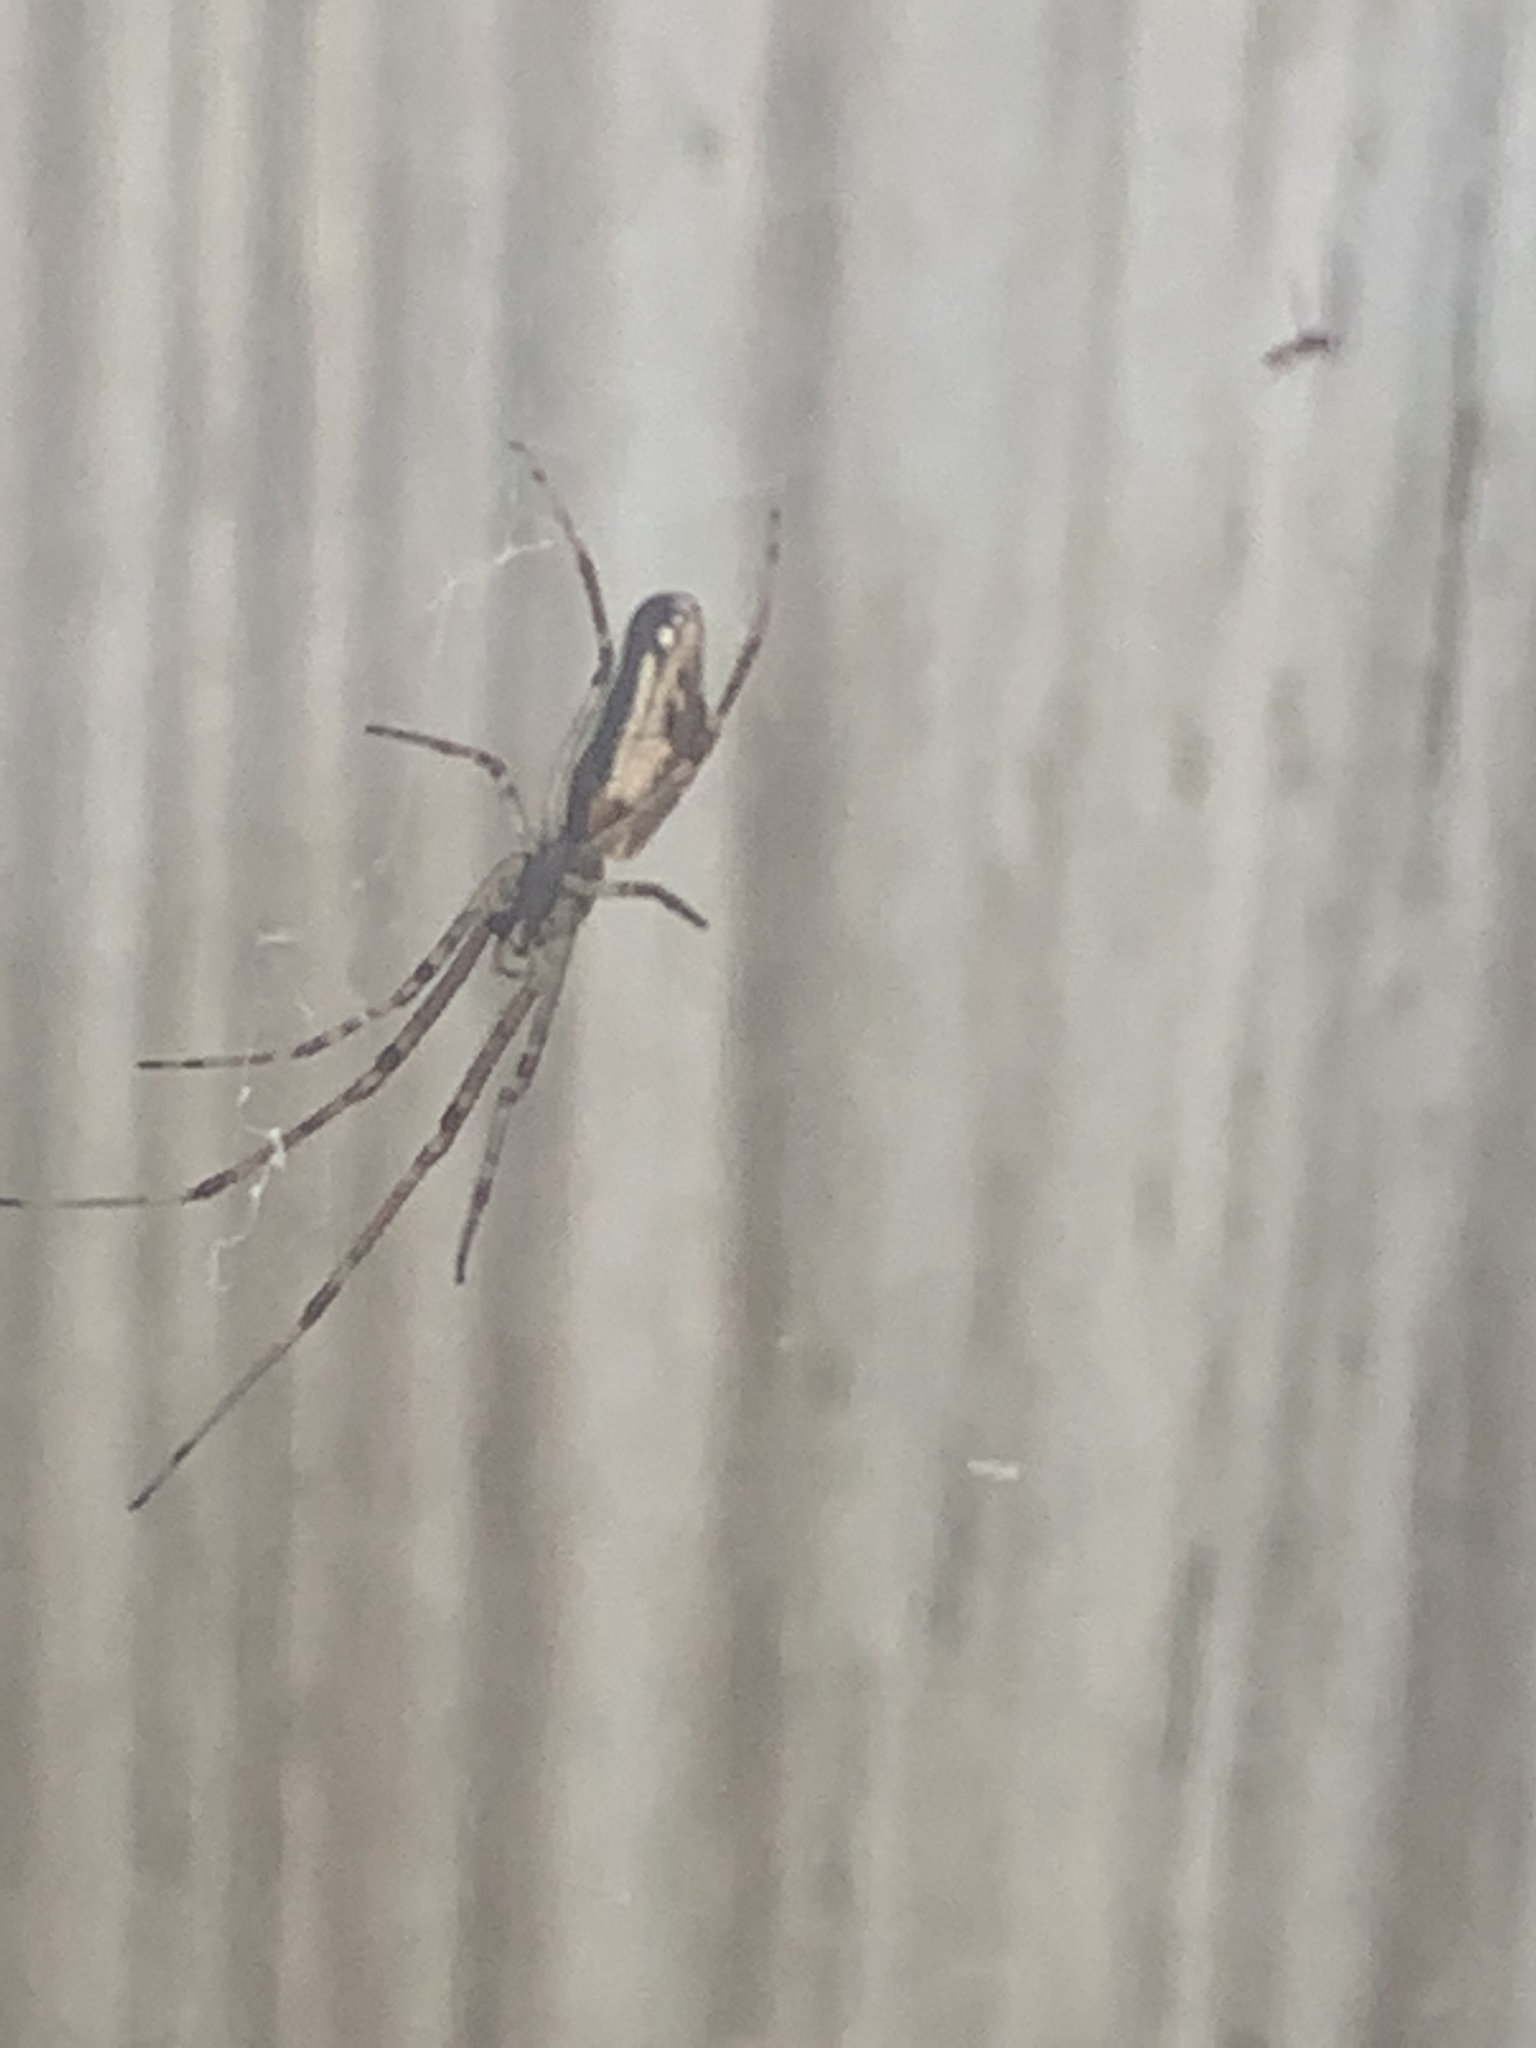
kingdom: Animalia
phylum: Arthropoda
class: Arachnida
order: Araneae
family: Tetragnathidae
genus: Tetragnatha
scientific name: Tetragnatha
